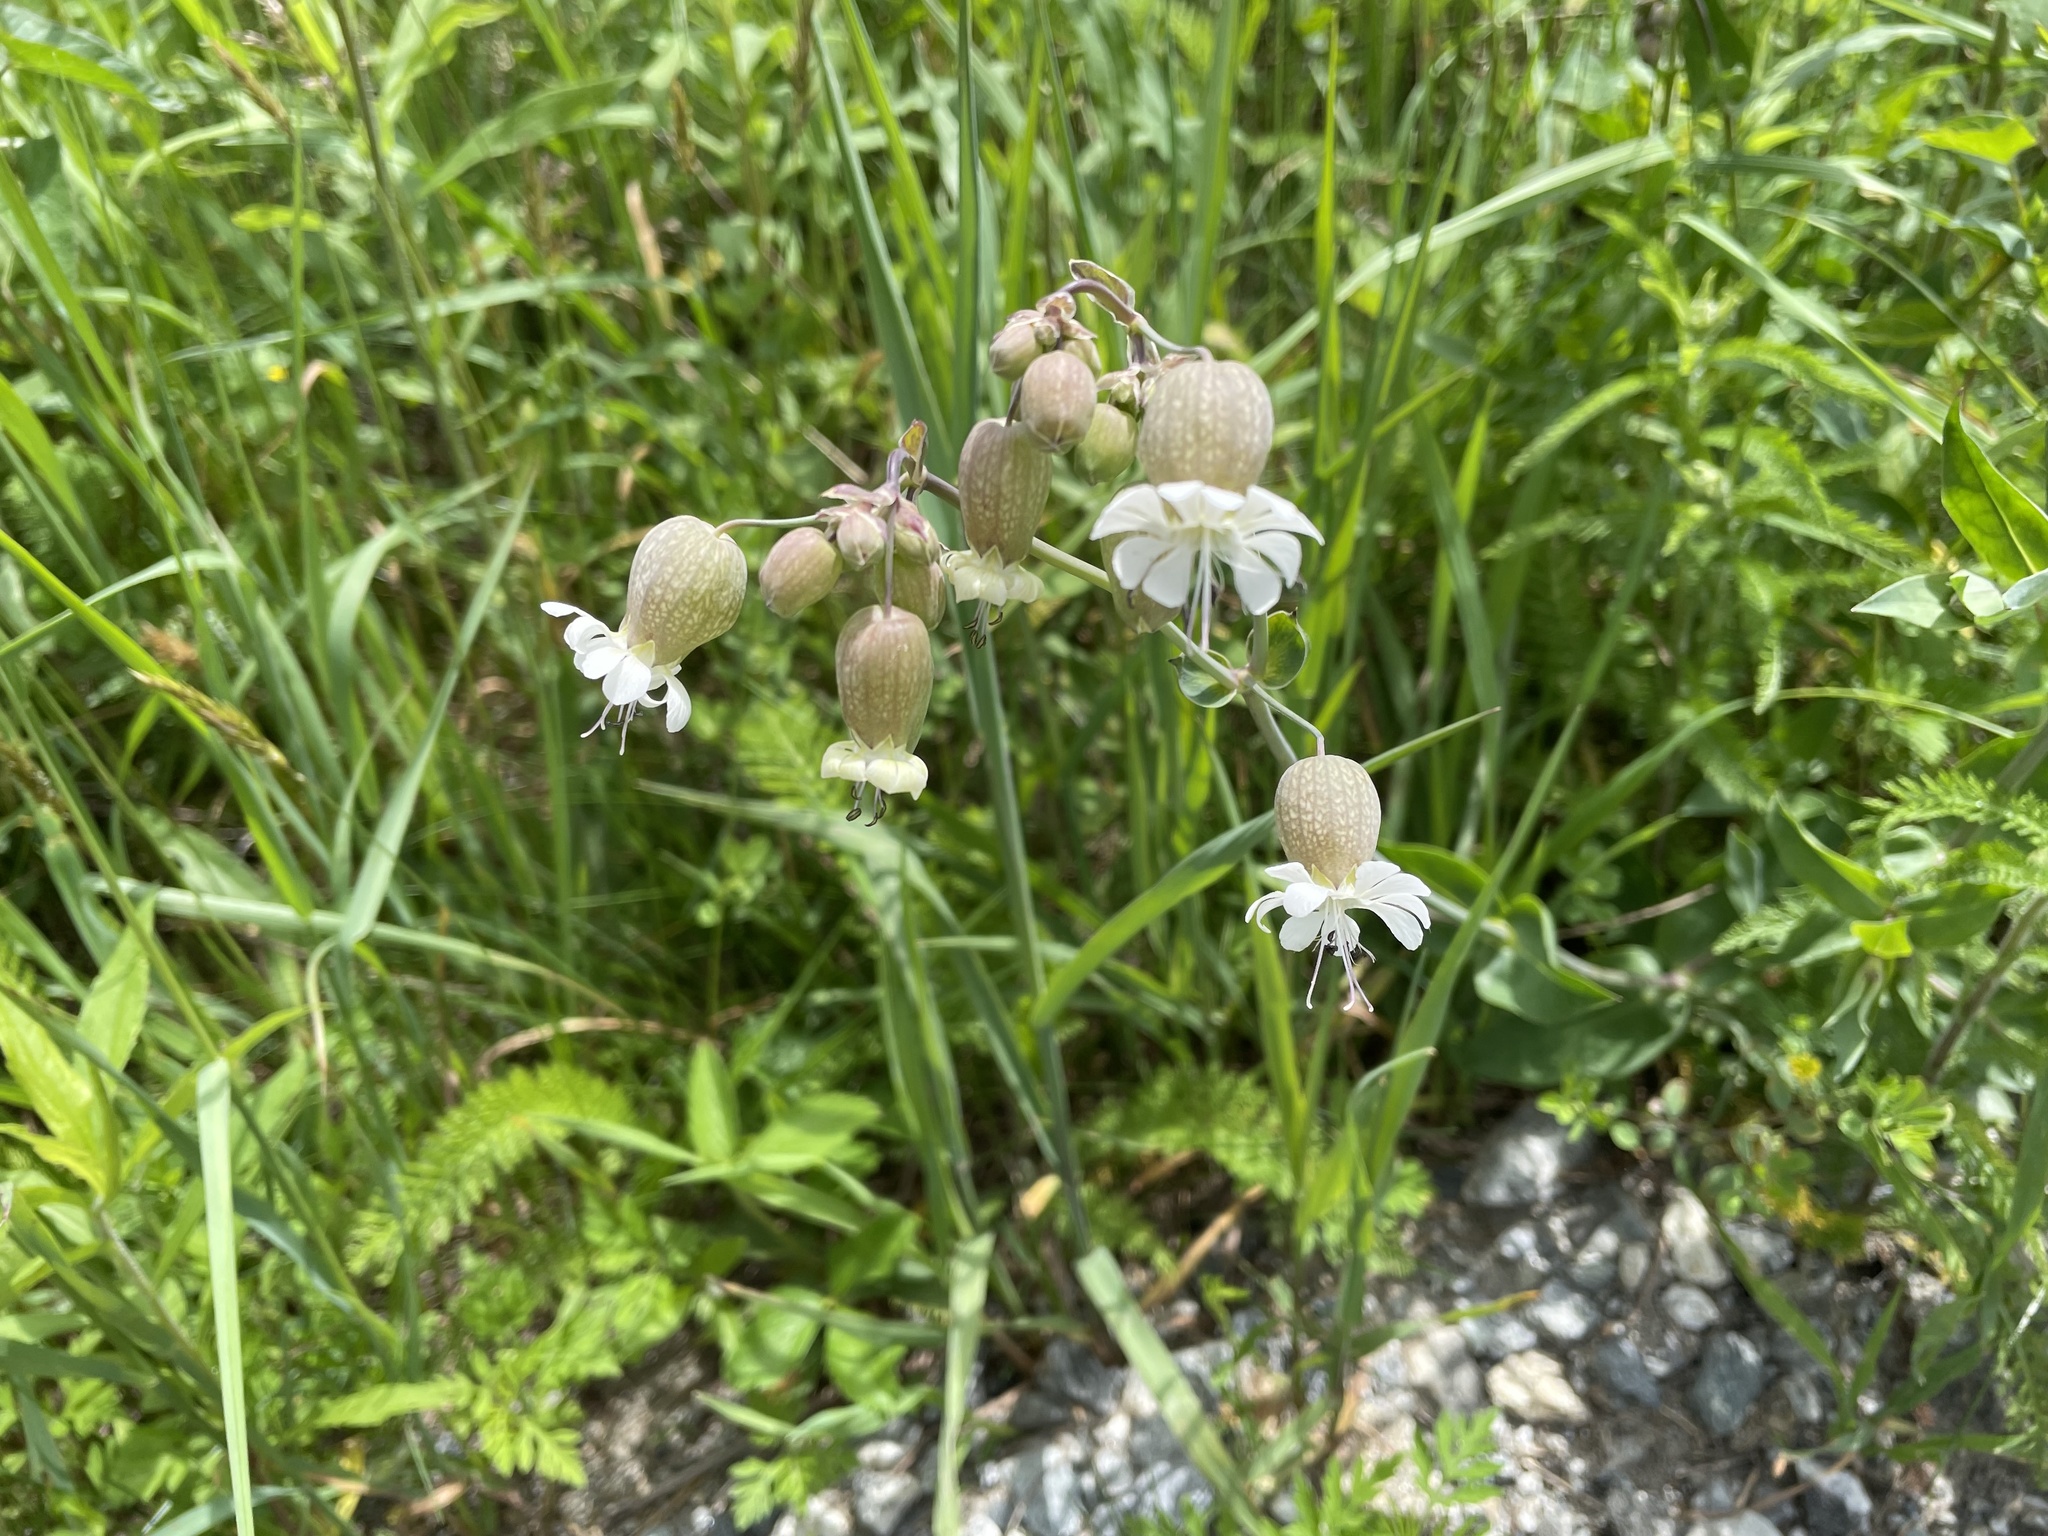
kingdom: Plantae
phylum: Tracheophyta
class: Magnoliopsida
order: Caryophyllales
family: Caryophyllaceae
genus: Silene
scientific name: Silene vulgaris
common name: Bladder campion
